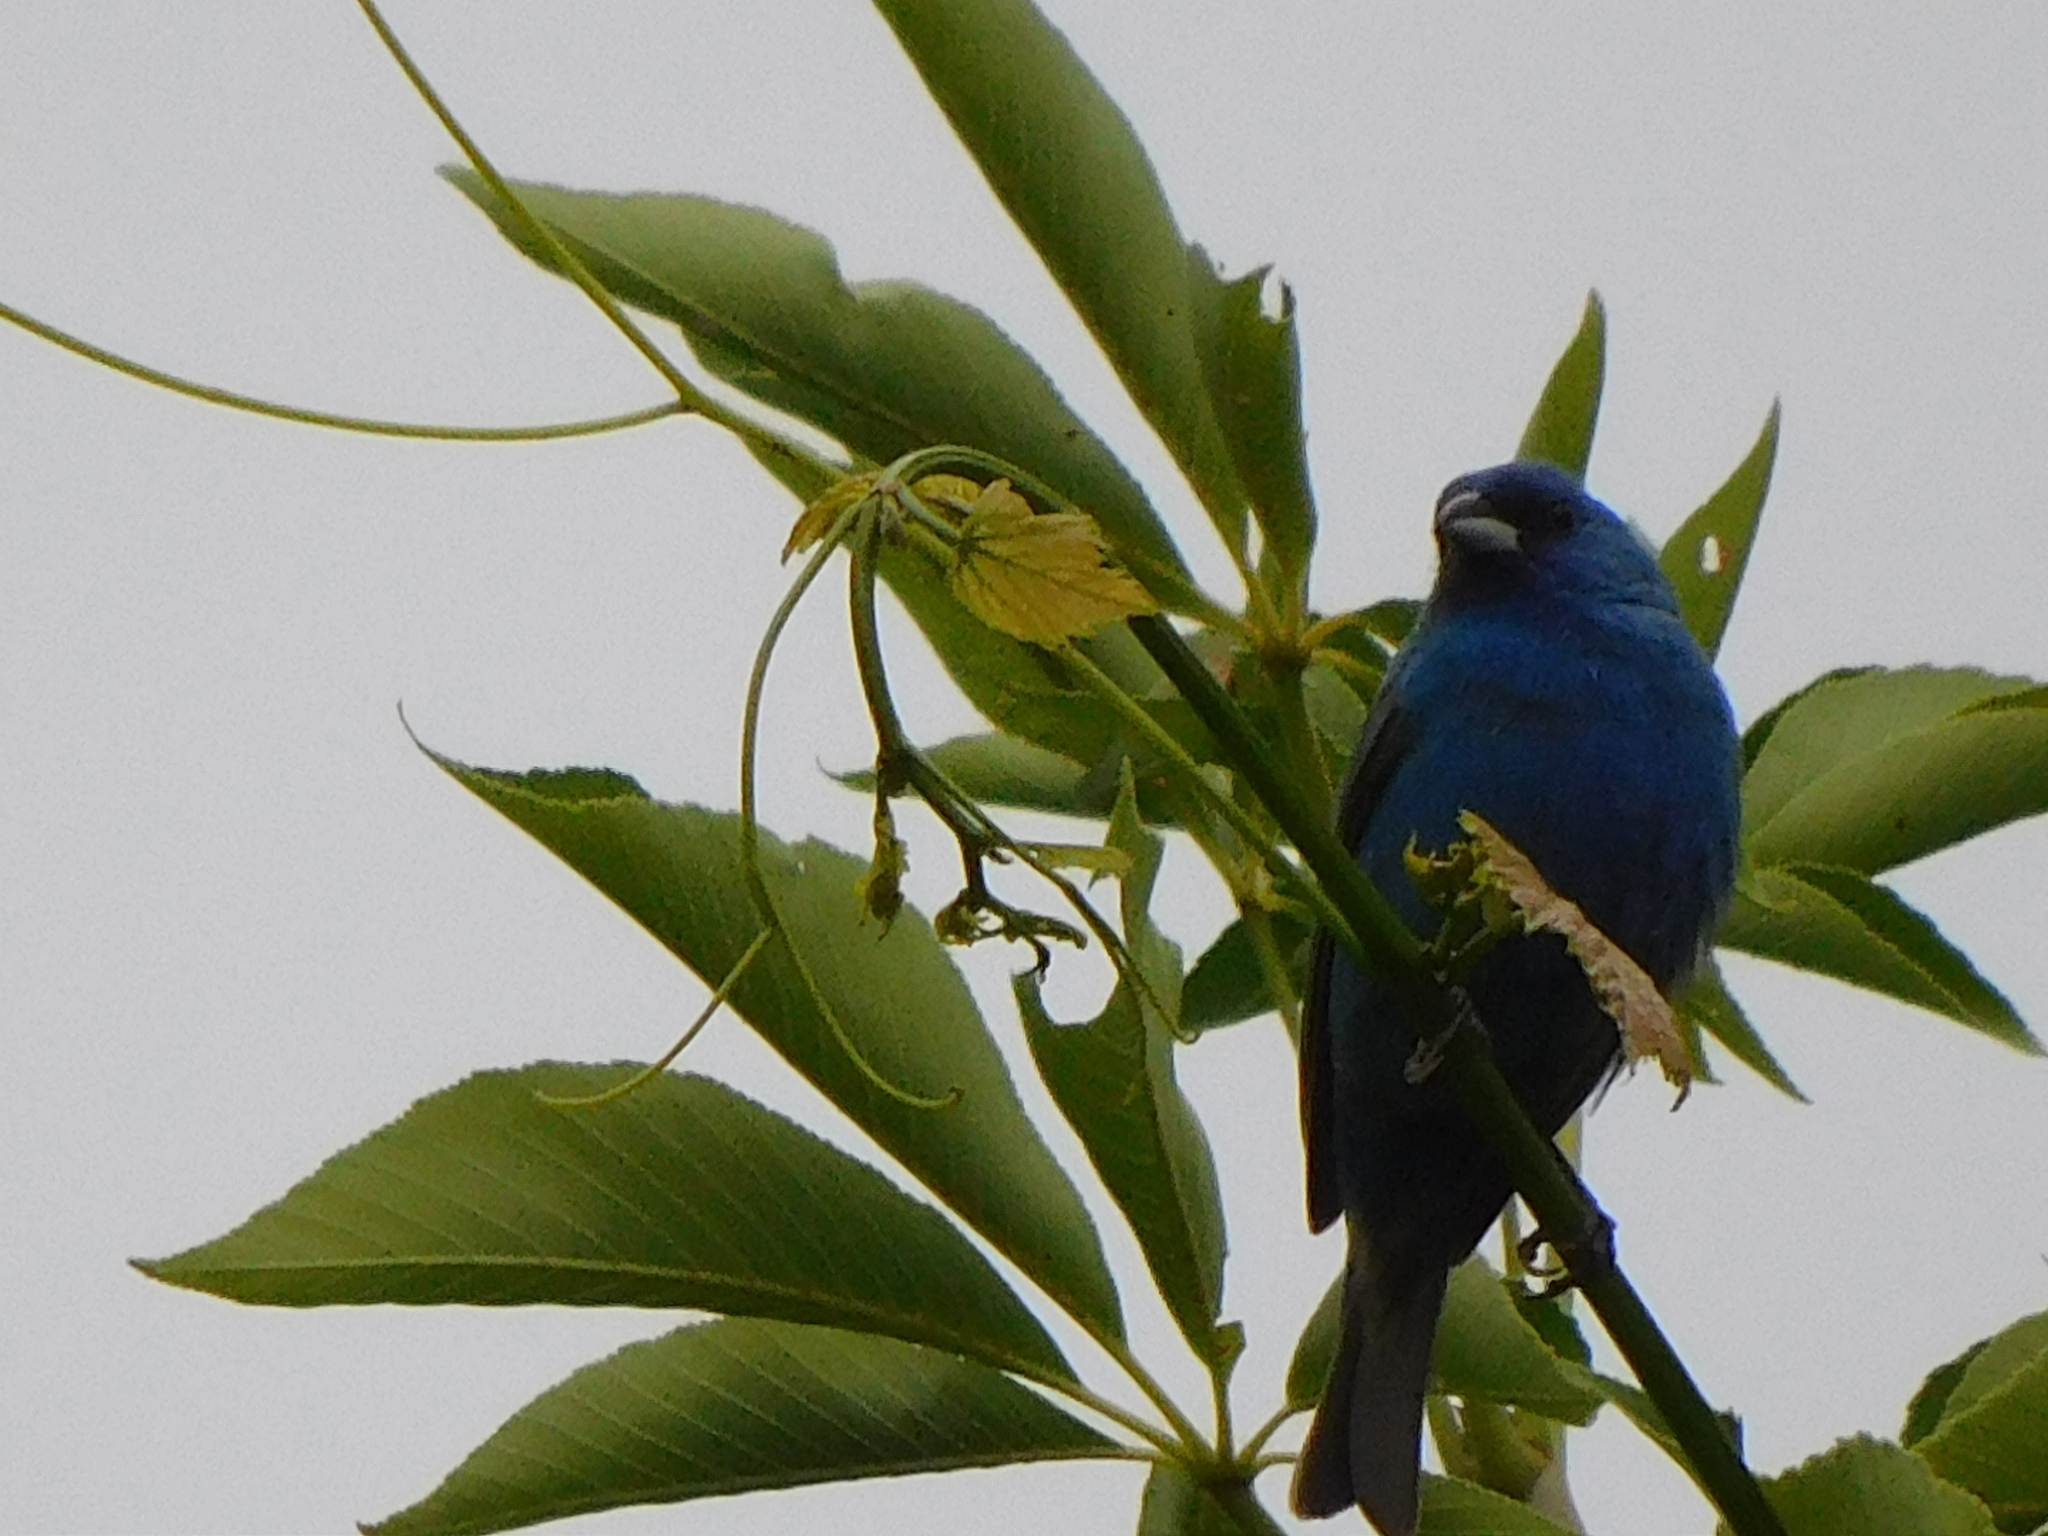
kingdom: Animalia
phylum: Chordata
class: Aves
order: Passeriformes
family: Cardinalidae
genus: Passerina
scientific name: Passerina cyanea
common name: Indigo bunting
